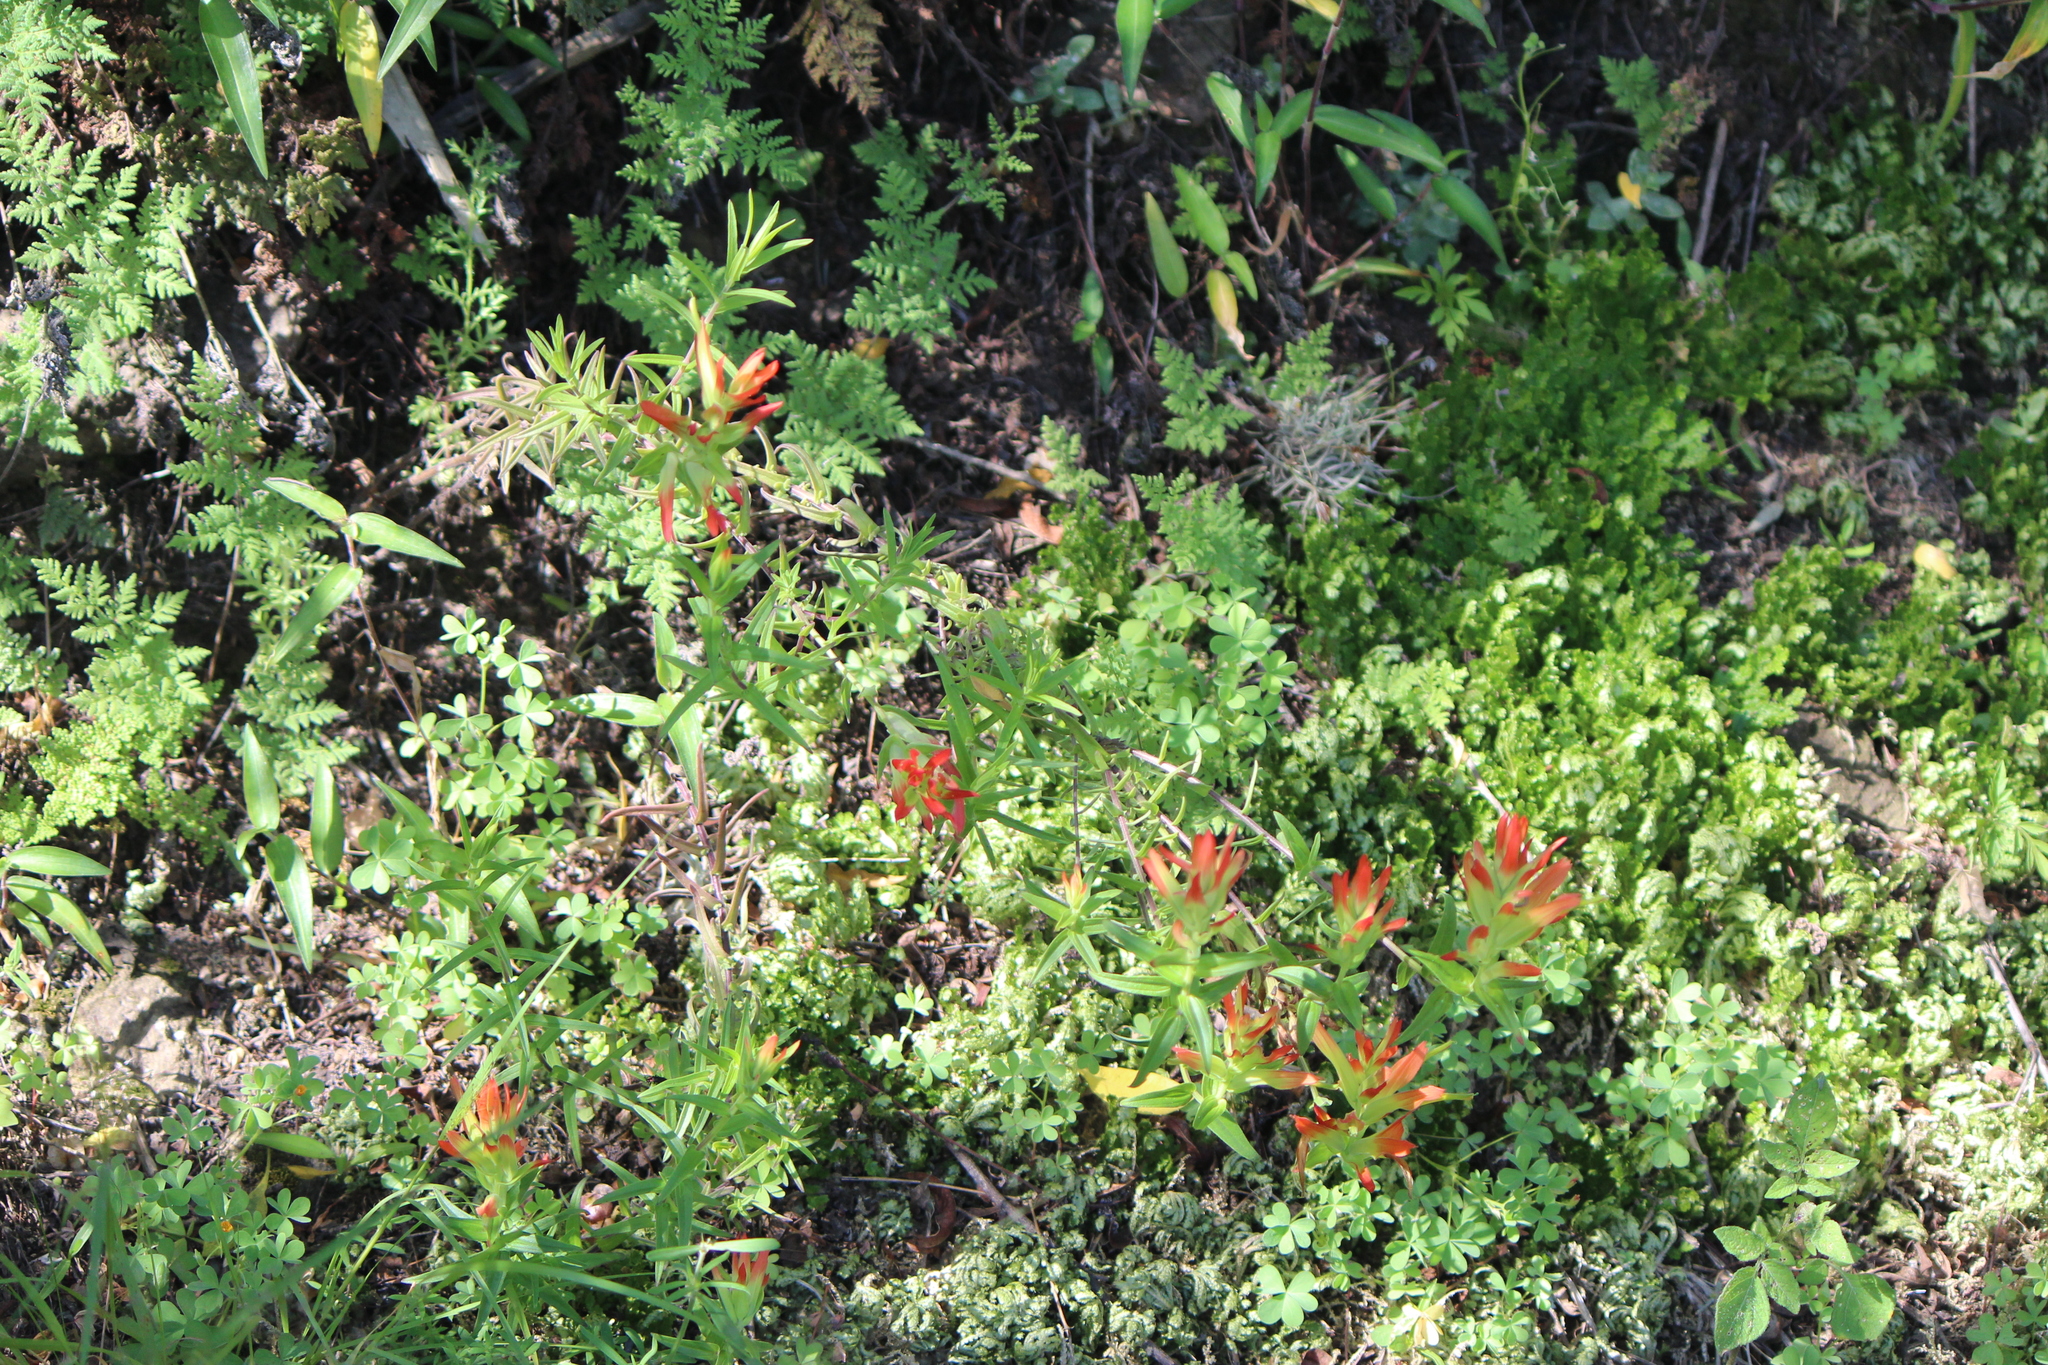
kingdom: Plantae
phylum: Tracheophyta
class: Magnoliopsida
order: Lamiales
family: Orobanchaceae
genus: Castilleja
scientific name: Castilleja tenuiflora
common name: Santa catalina indian paintbrush
